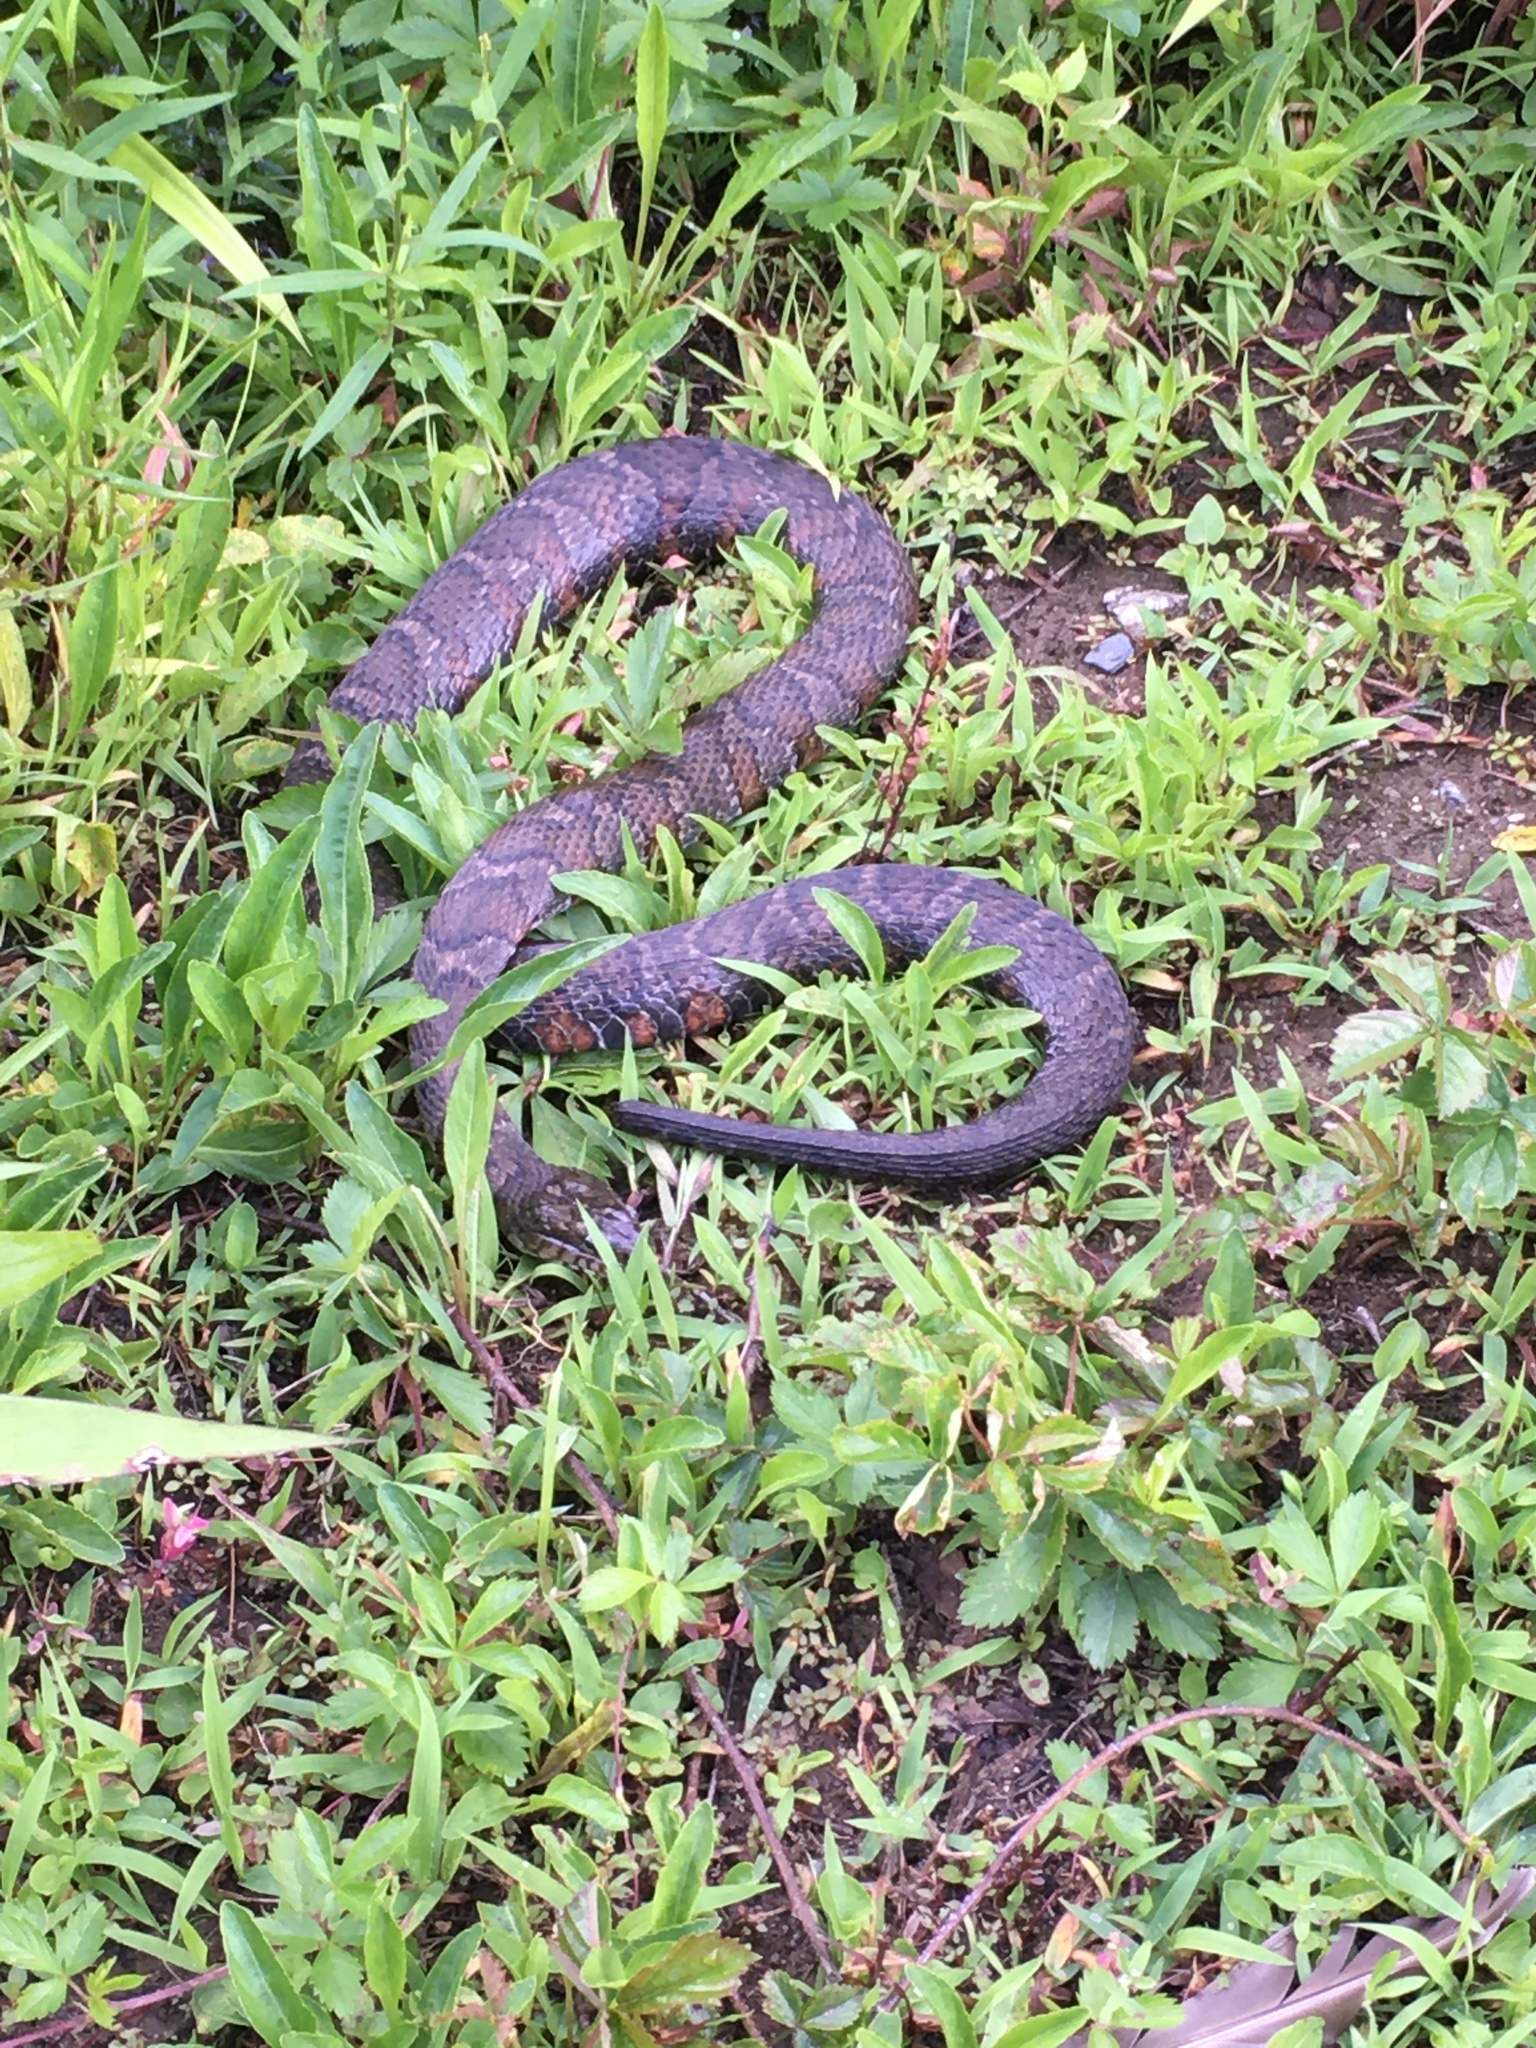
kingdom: Animalia
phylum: Chordata
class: Squamata
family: Colubridae
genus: Nerodia
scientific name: Nerodia sipedon
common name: Northern water snake
